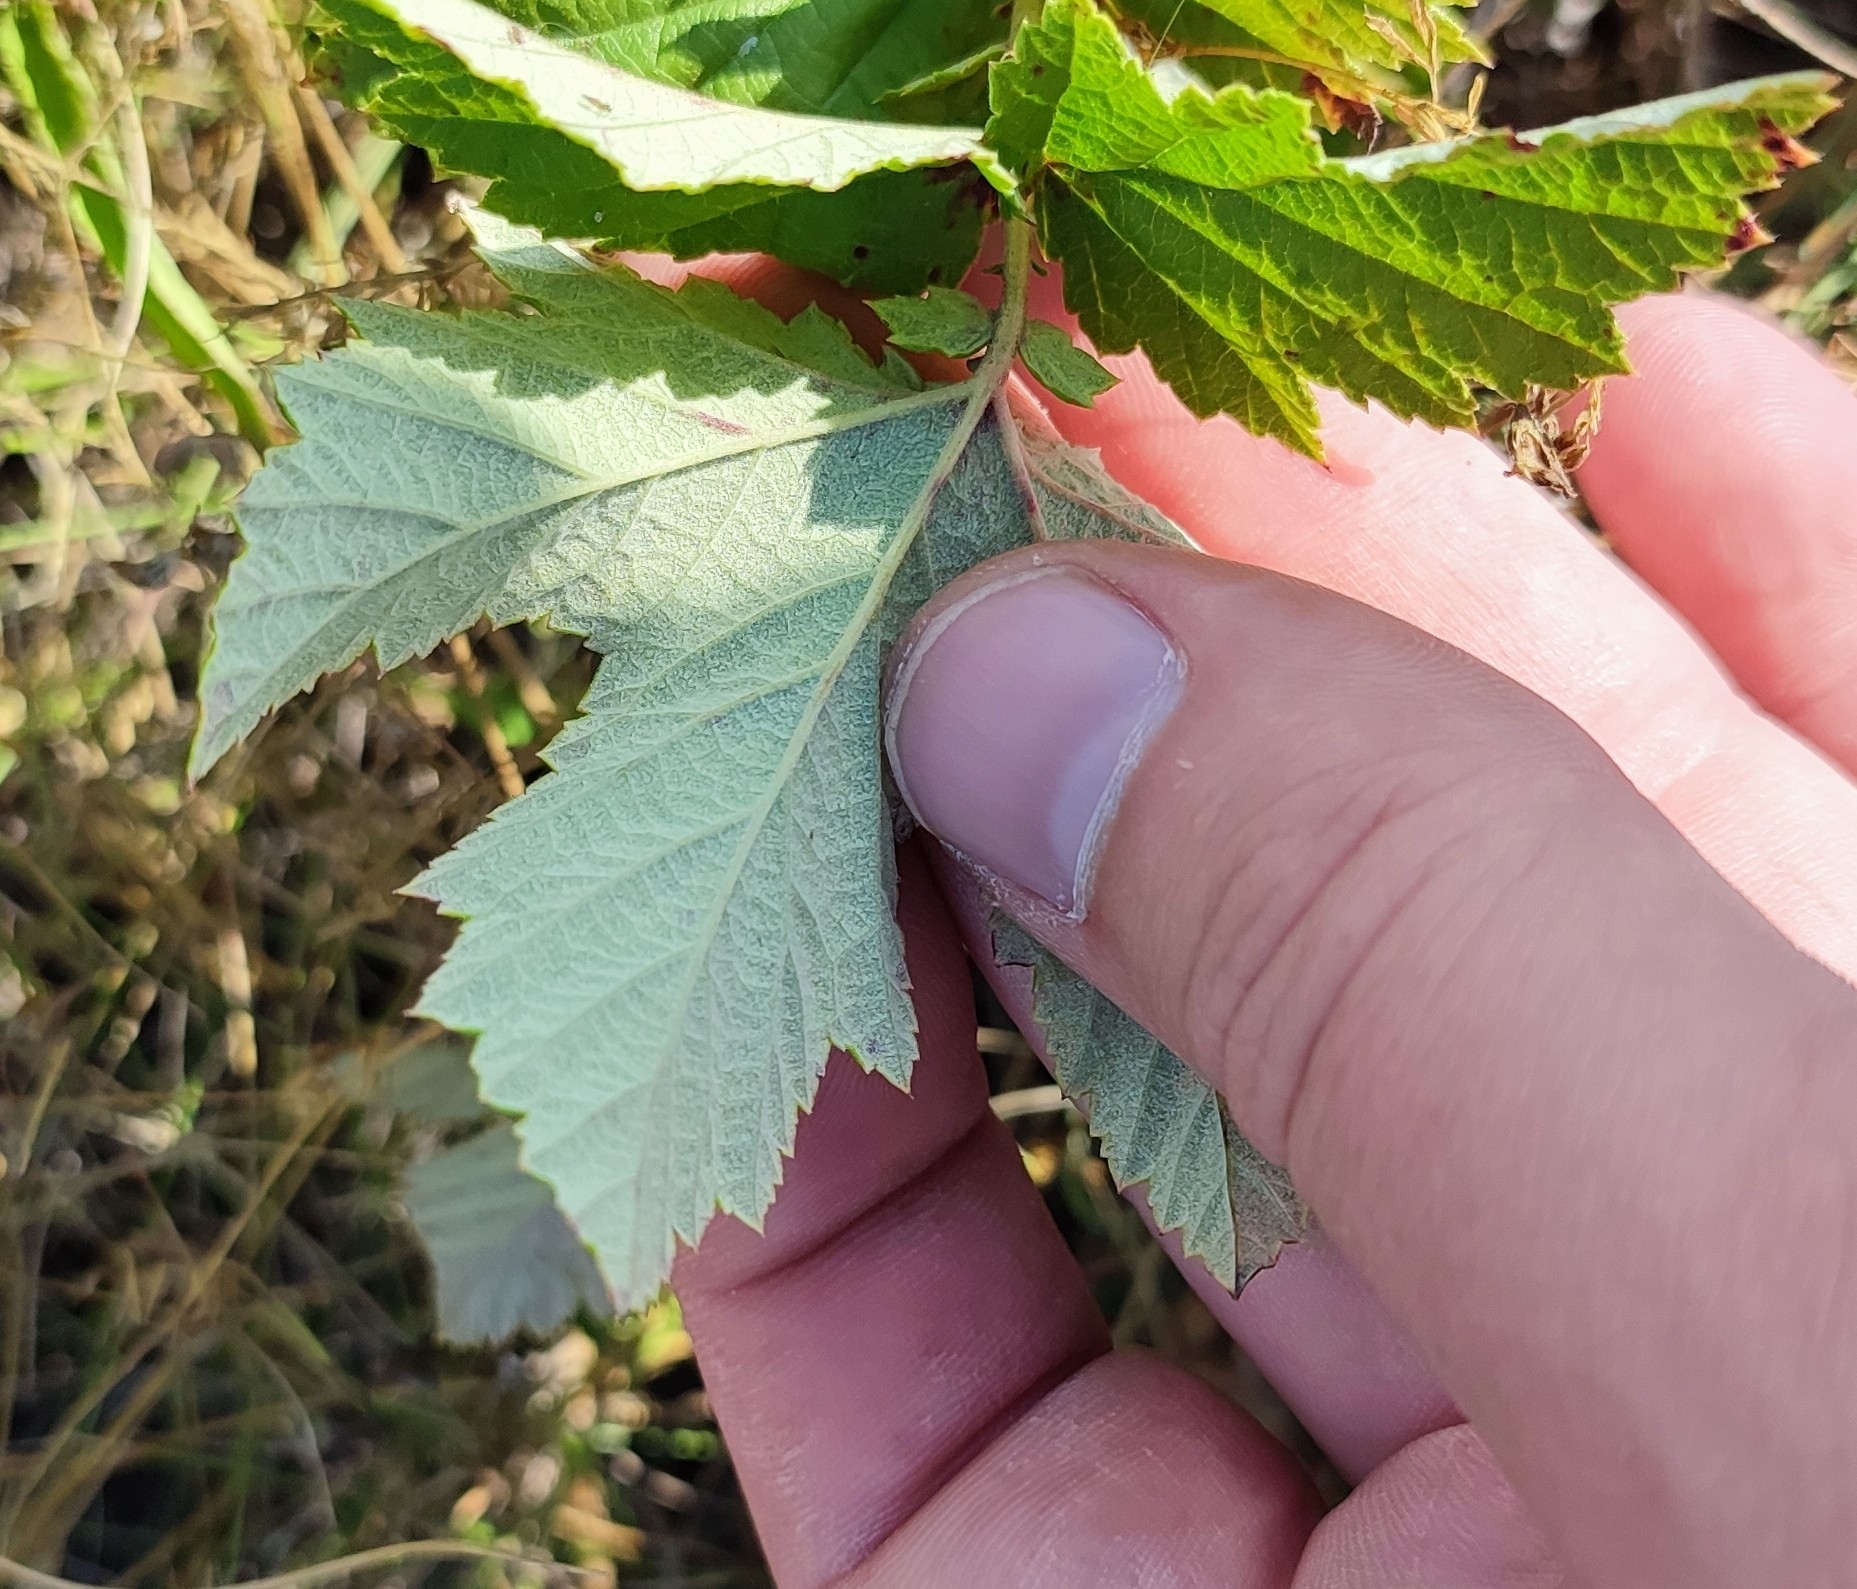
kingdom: Plantae
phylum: Tracheophyta
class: Magnoliopsida
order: Rosales
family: Rosaceae
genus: Filipendula
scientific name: Filipendula ulmaria
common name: Meadowsweet
